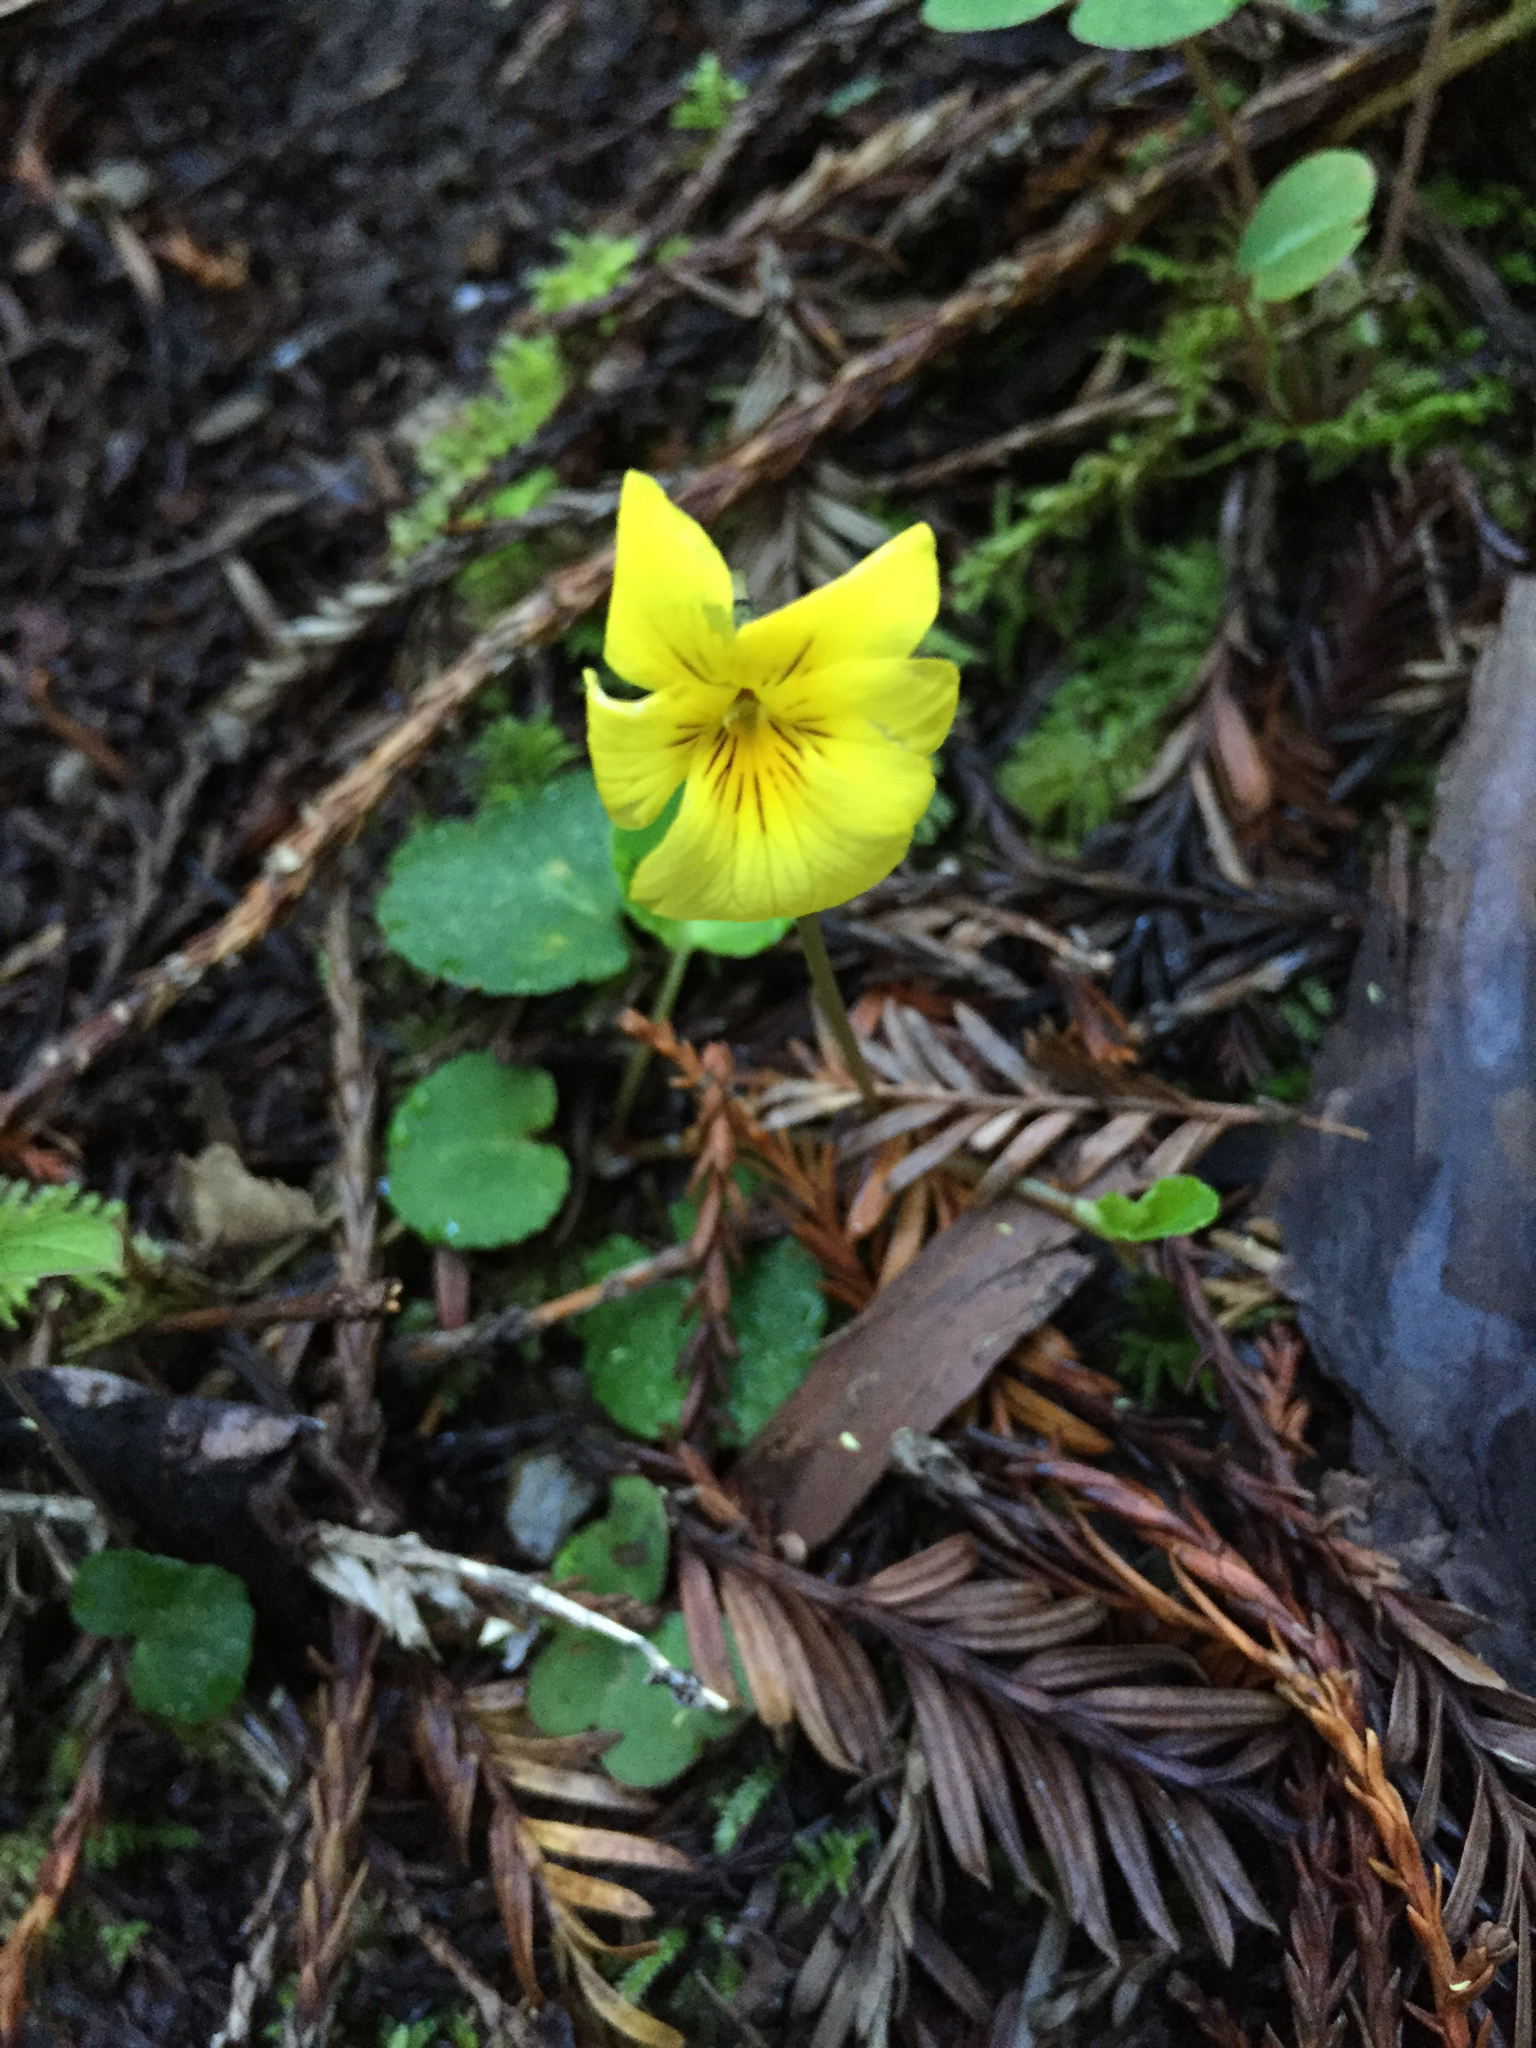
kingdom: Plantae
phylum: Tracheophyta
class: Magnoliopsida
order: Malpighiales
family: Violaceae
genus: Viola
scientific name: Viola sempervirens
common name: Evergreen violet
